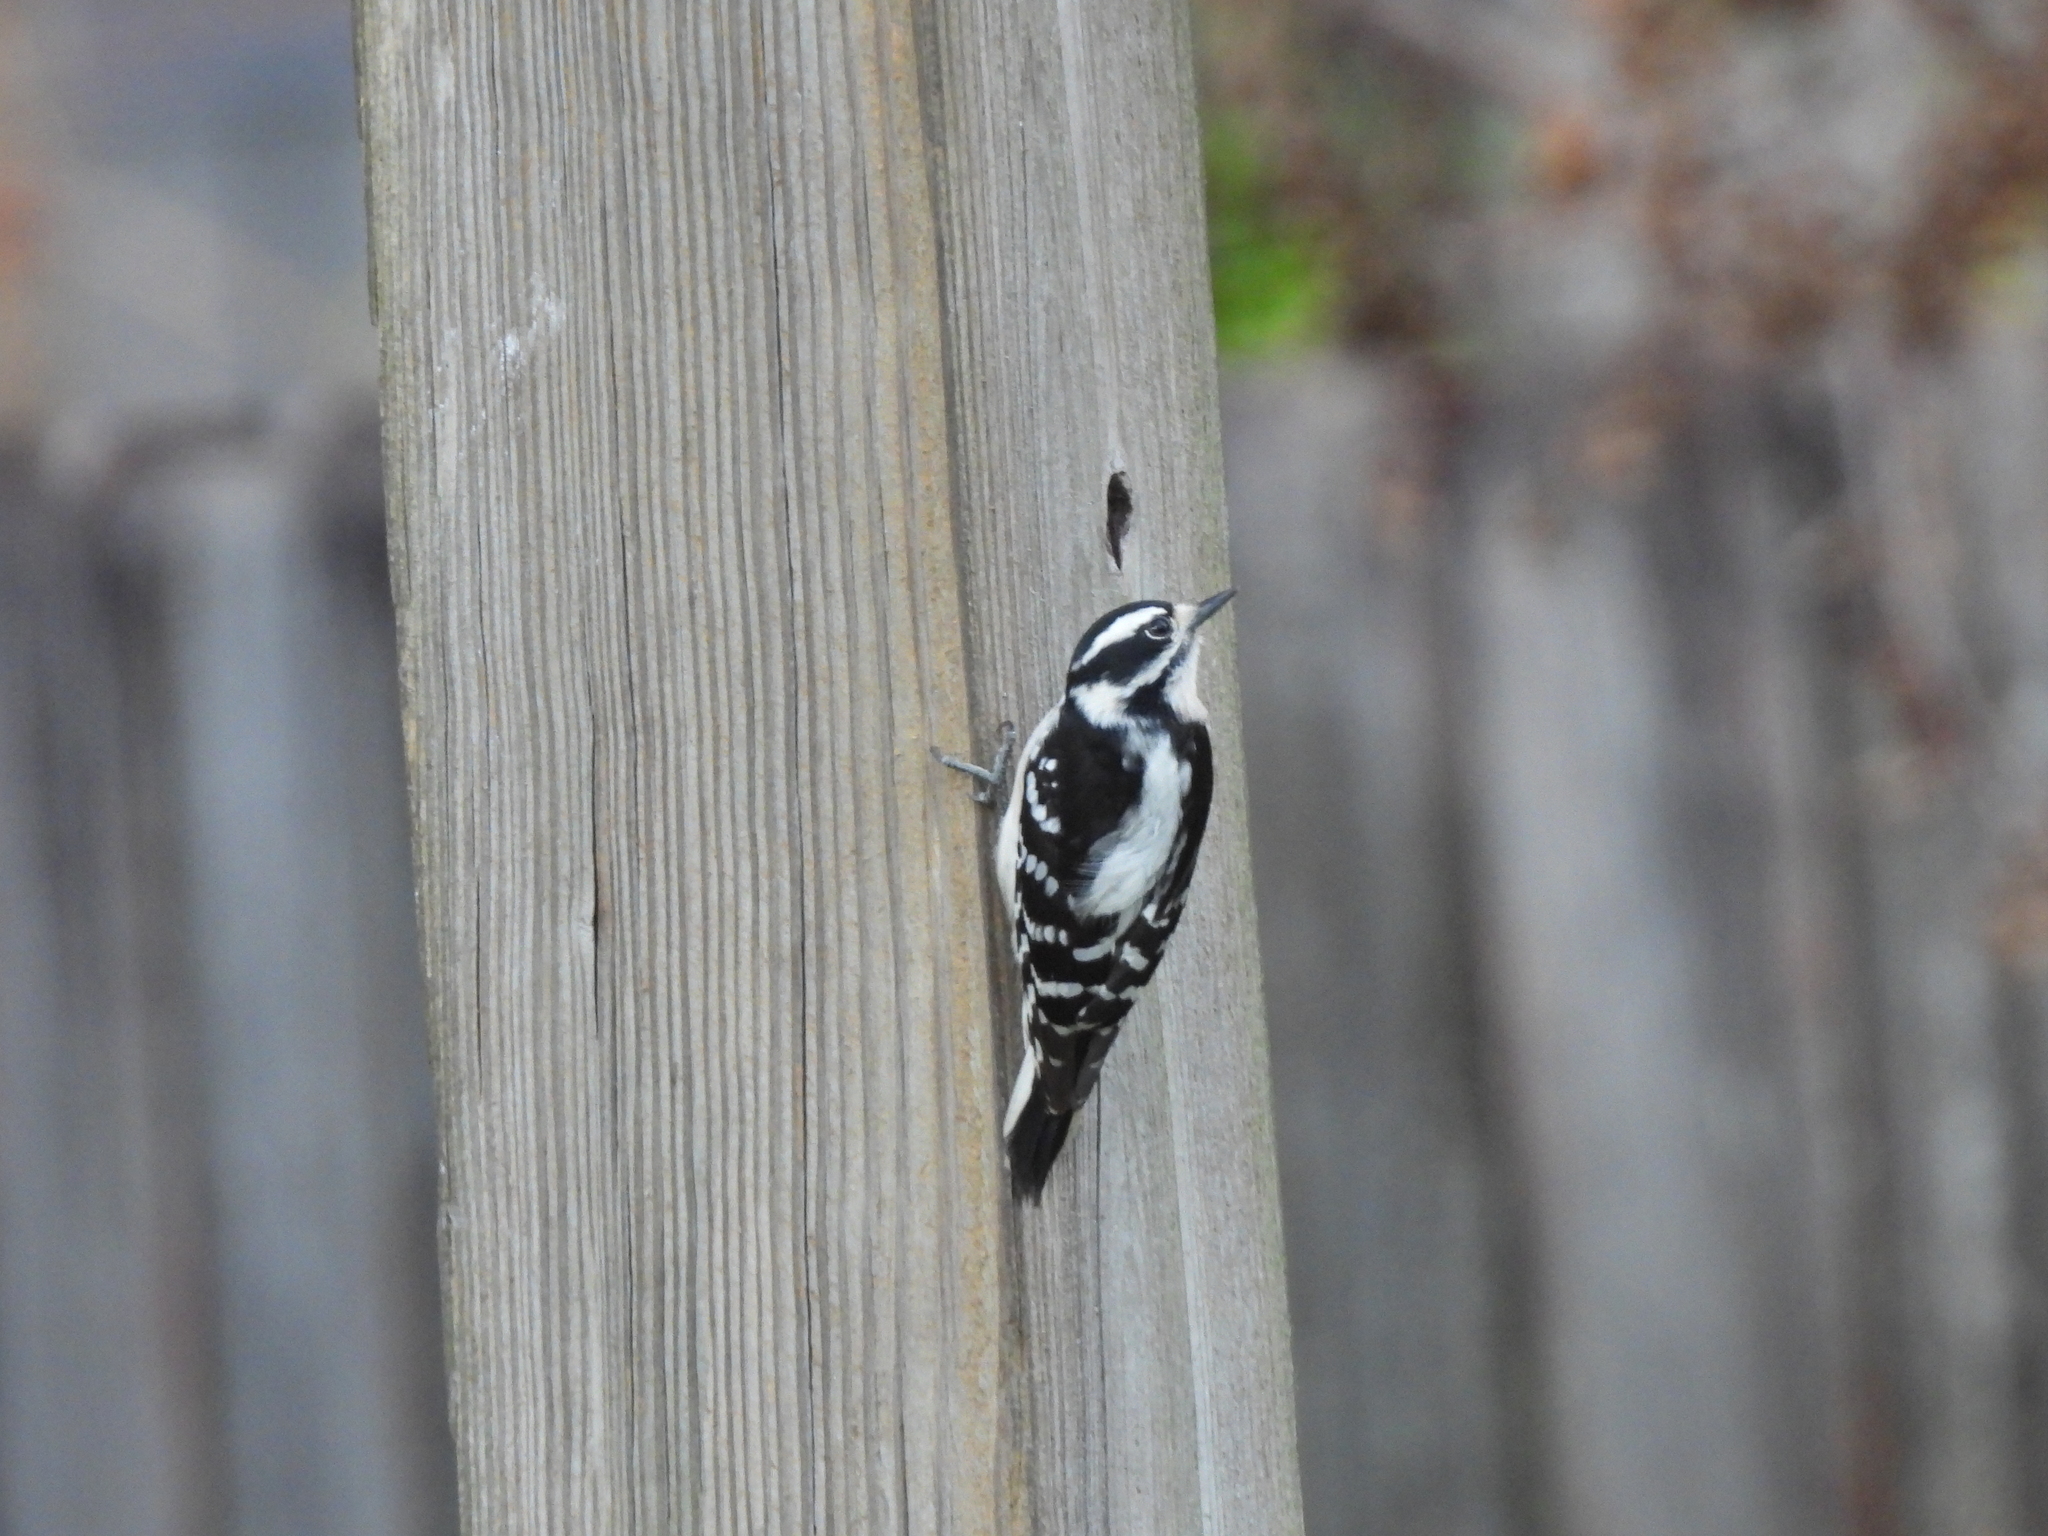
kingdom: Animalia
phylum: Chordata
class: Aves
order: Piciformes
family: Picidae
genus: Dryobates
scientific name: Dryobates pubescens
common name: Downy woodpecker
